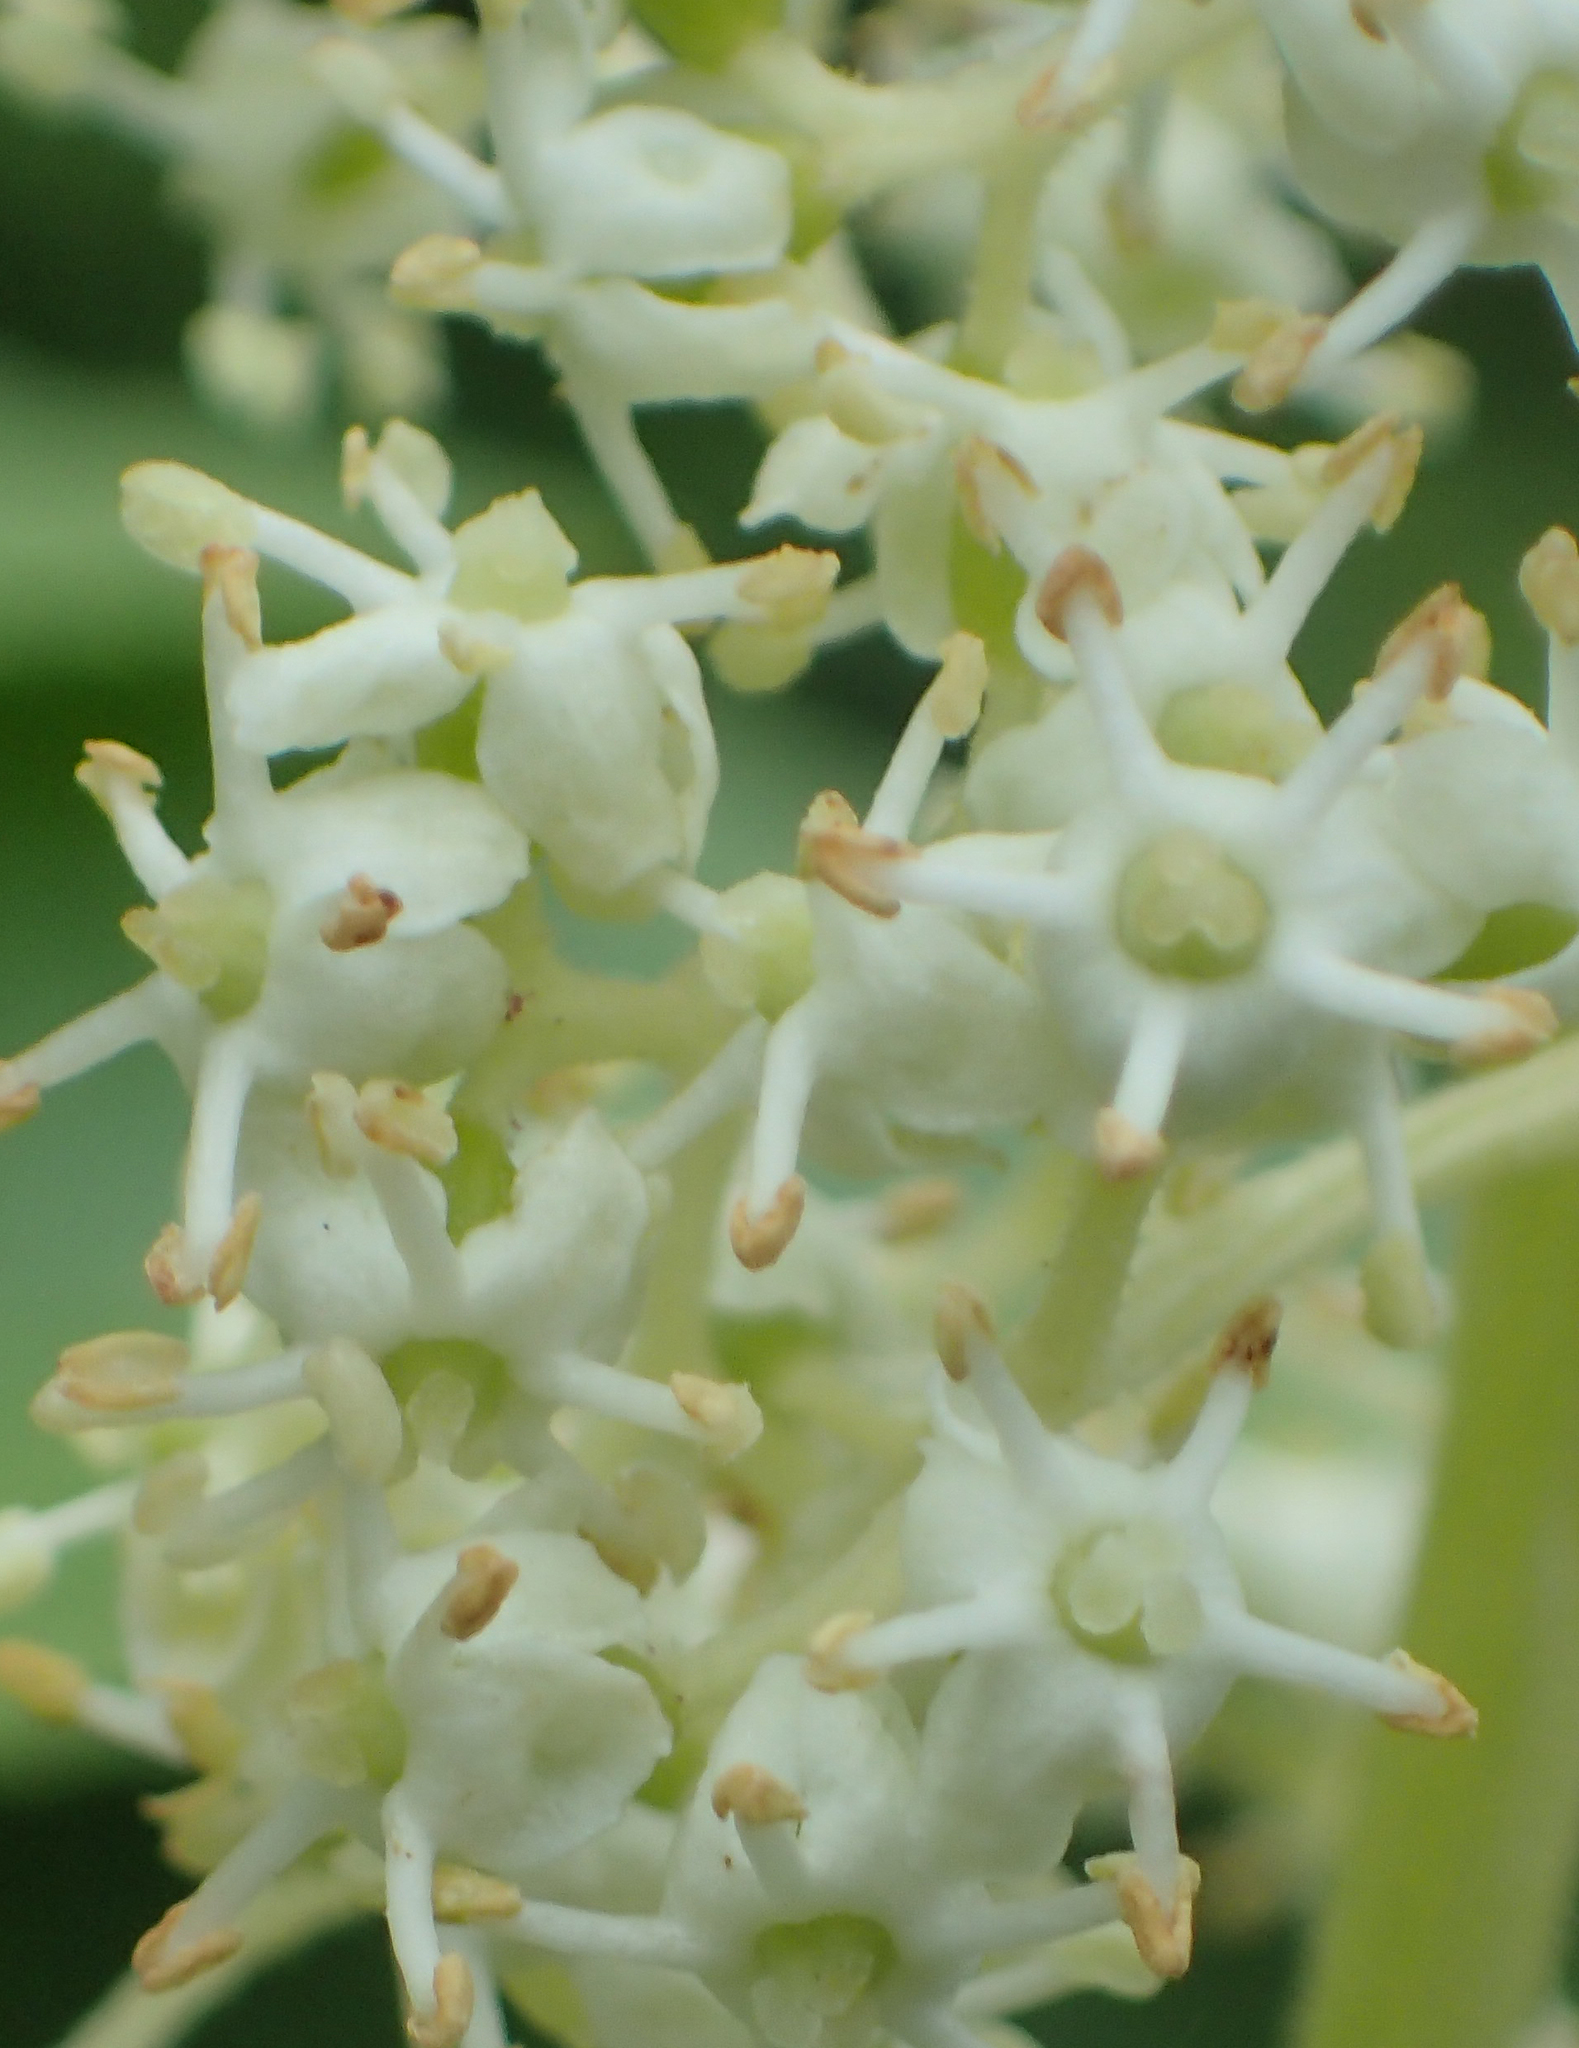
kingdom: Plantae
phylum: Tracheophyta
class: Magnoliopsida
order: Dipsacales
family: Viburnaceae
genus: Sambucus
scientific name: Sambucus racemosa
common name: Red-berried elder
